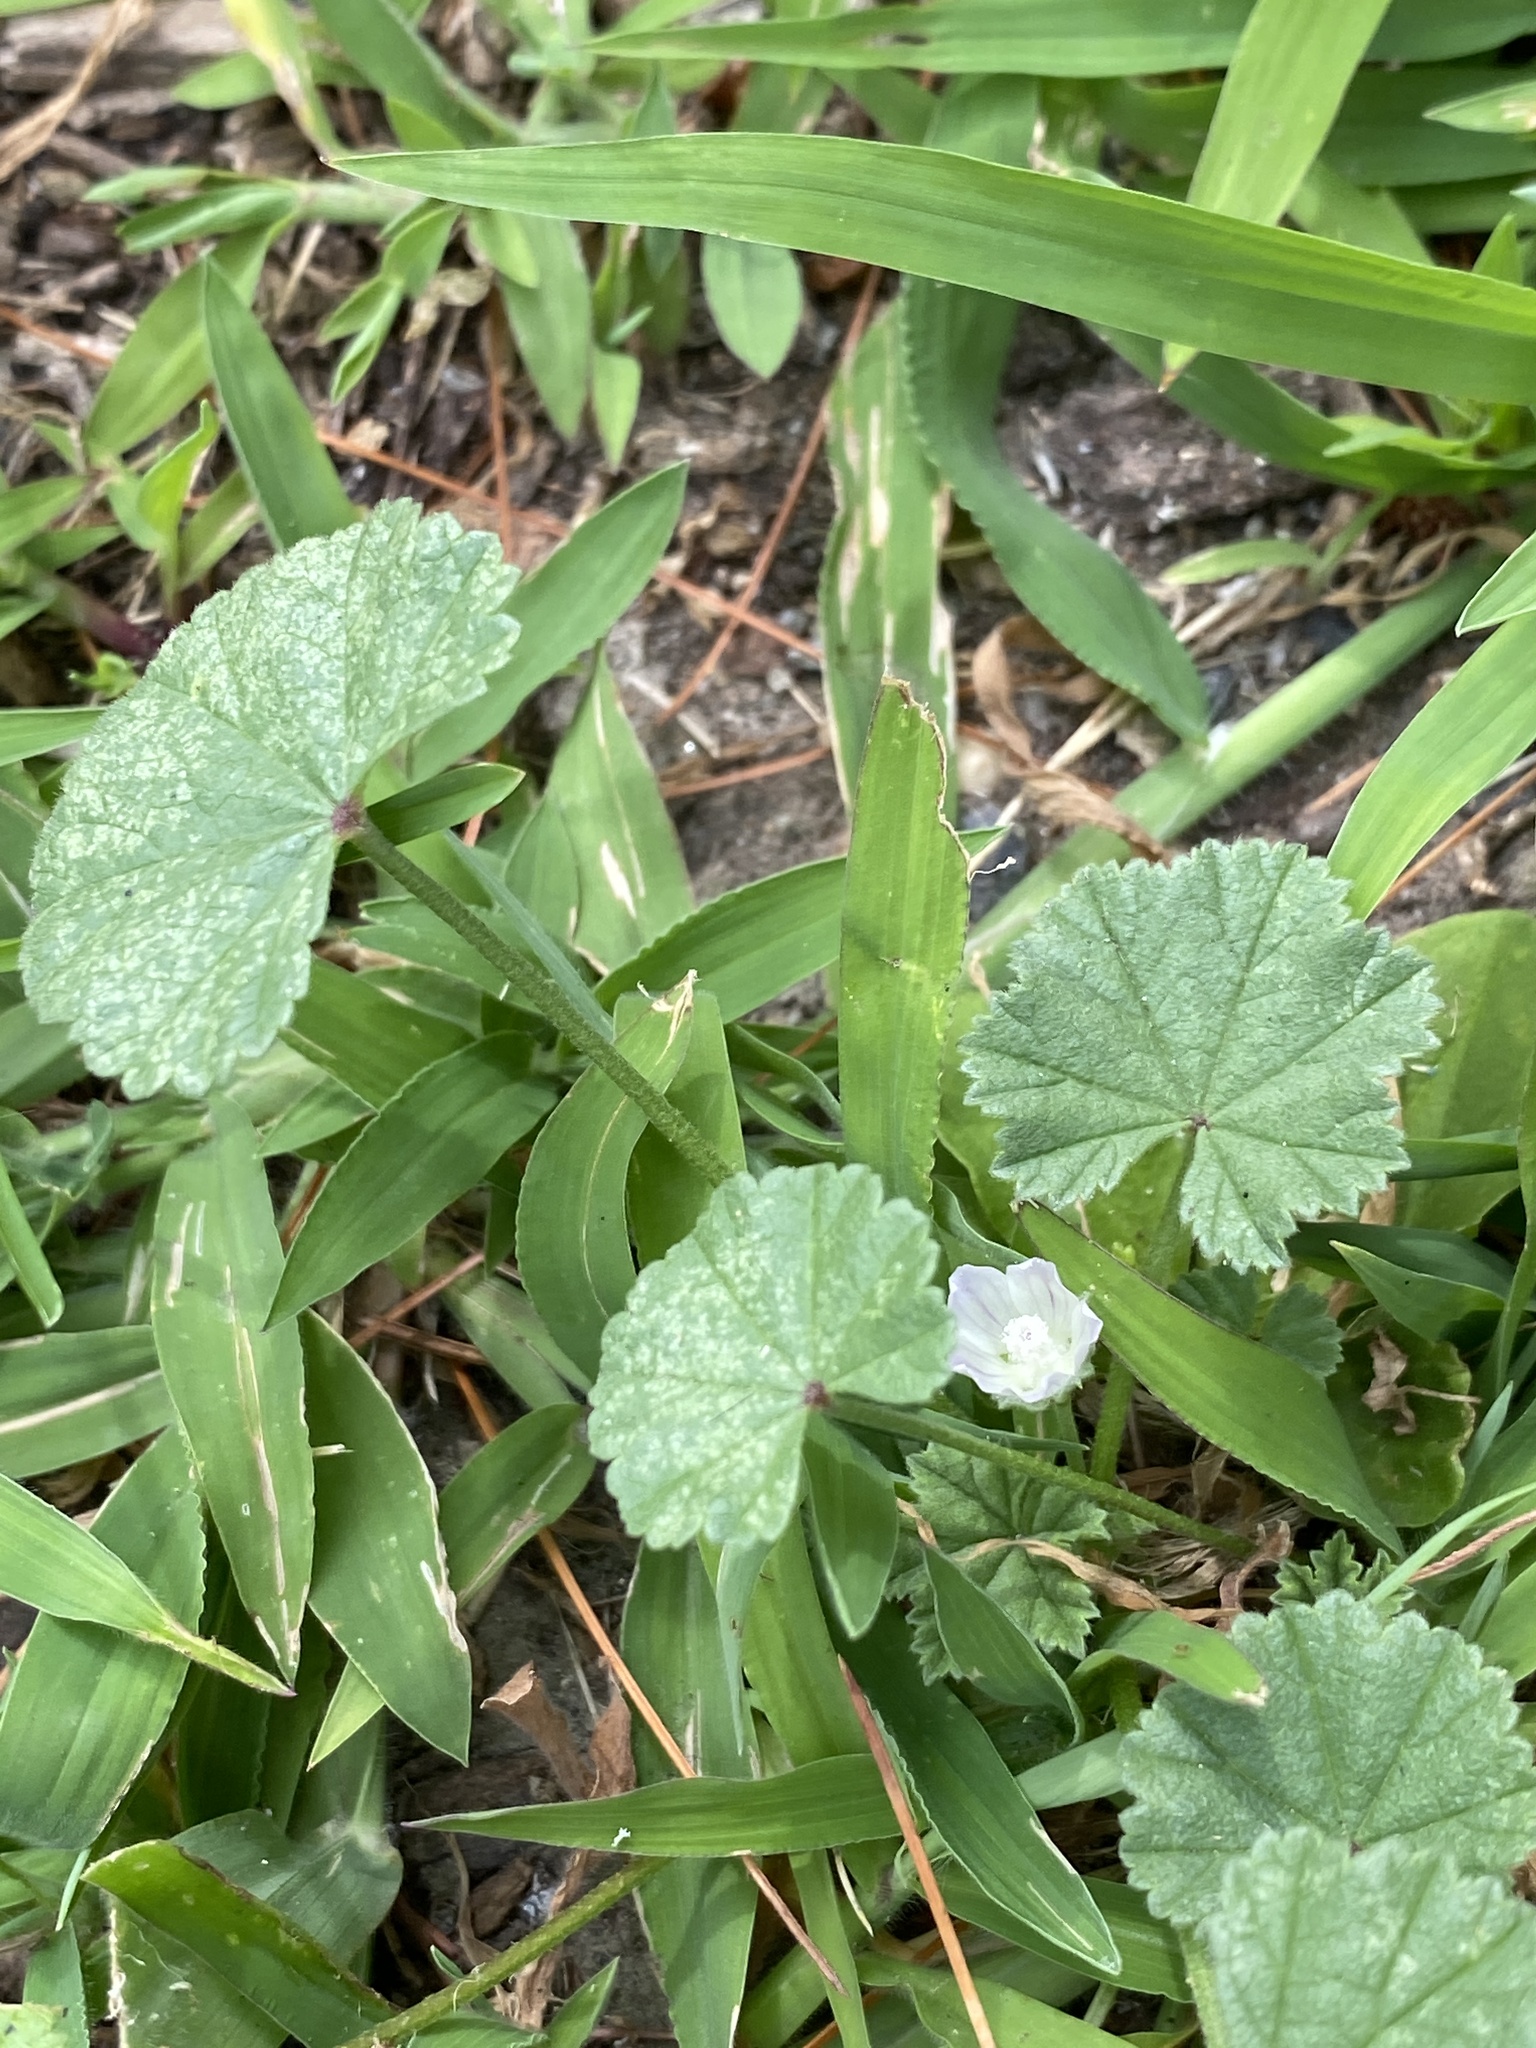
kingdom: Plantae
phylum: Tracheophyta
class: Magnoliopsida
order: Malvales
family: Malvaceae
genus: Malva
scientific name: Malva neglecta
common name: Common mallow
